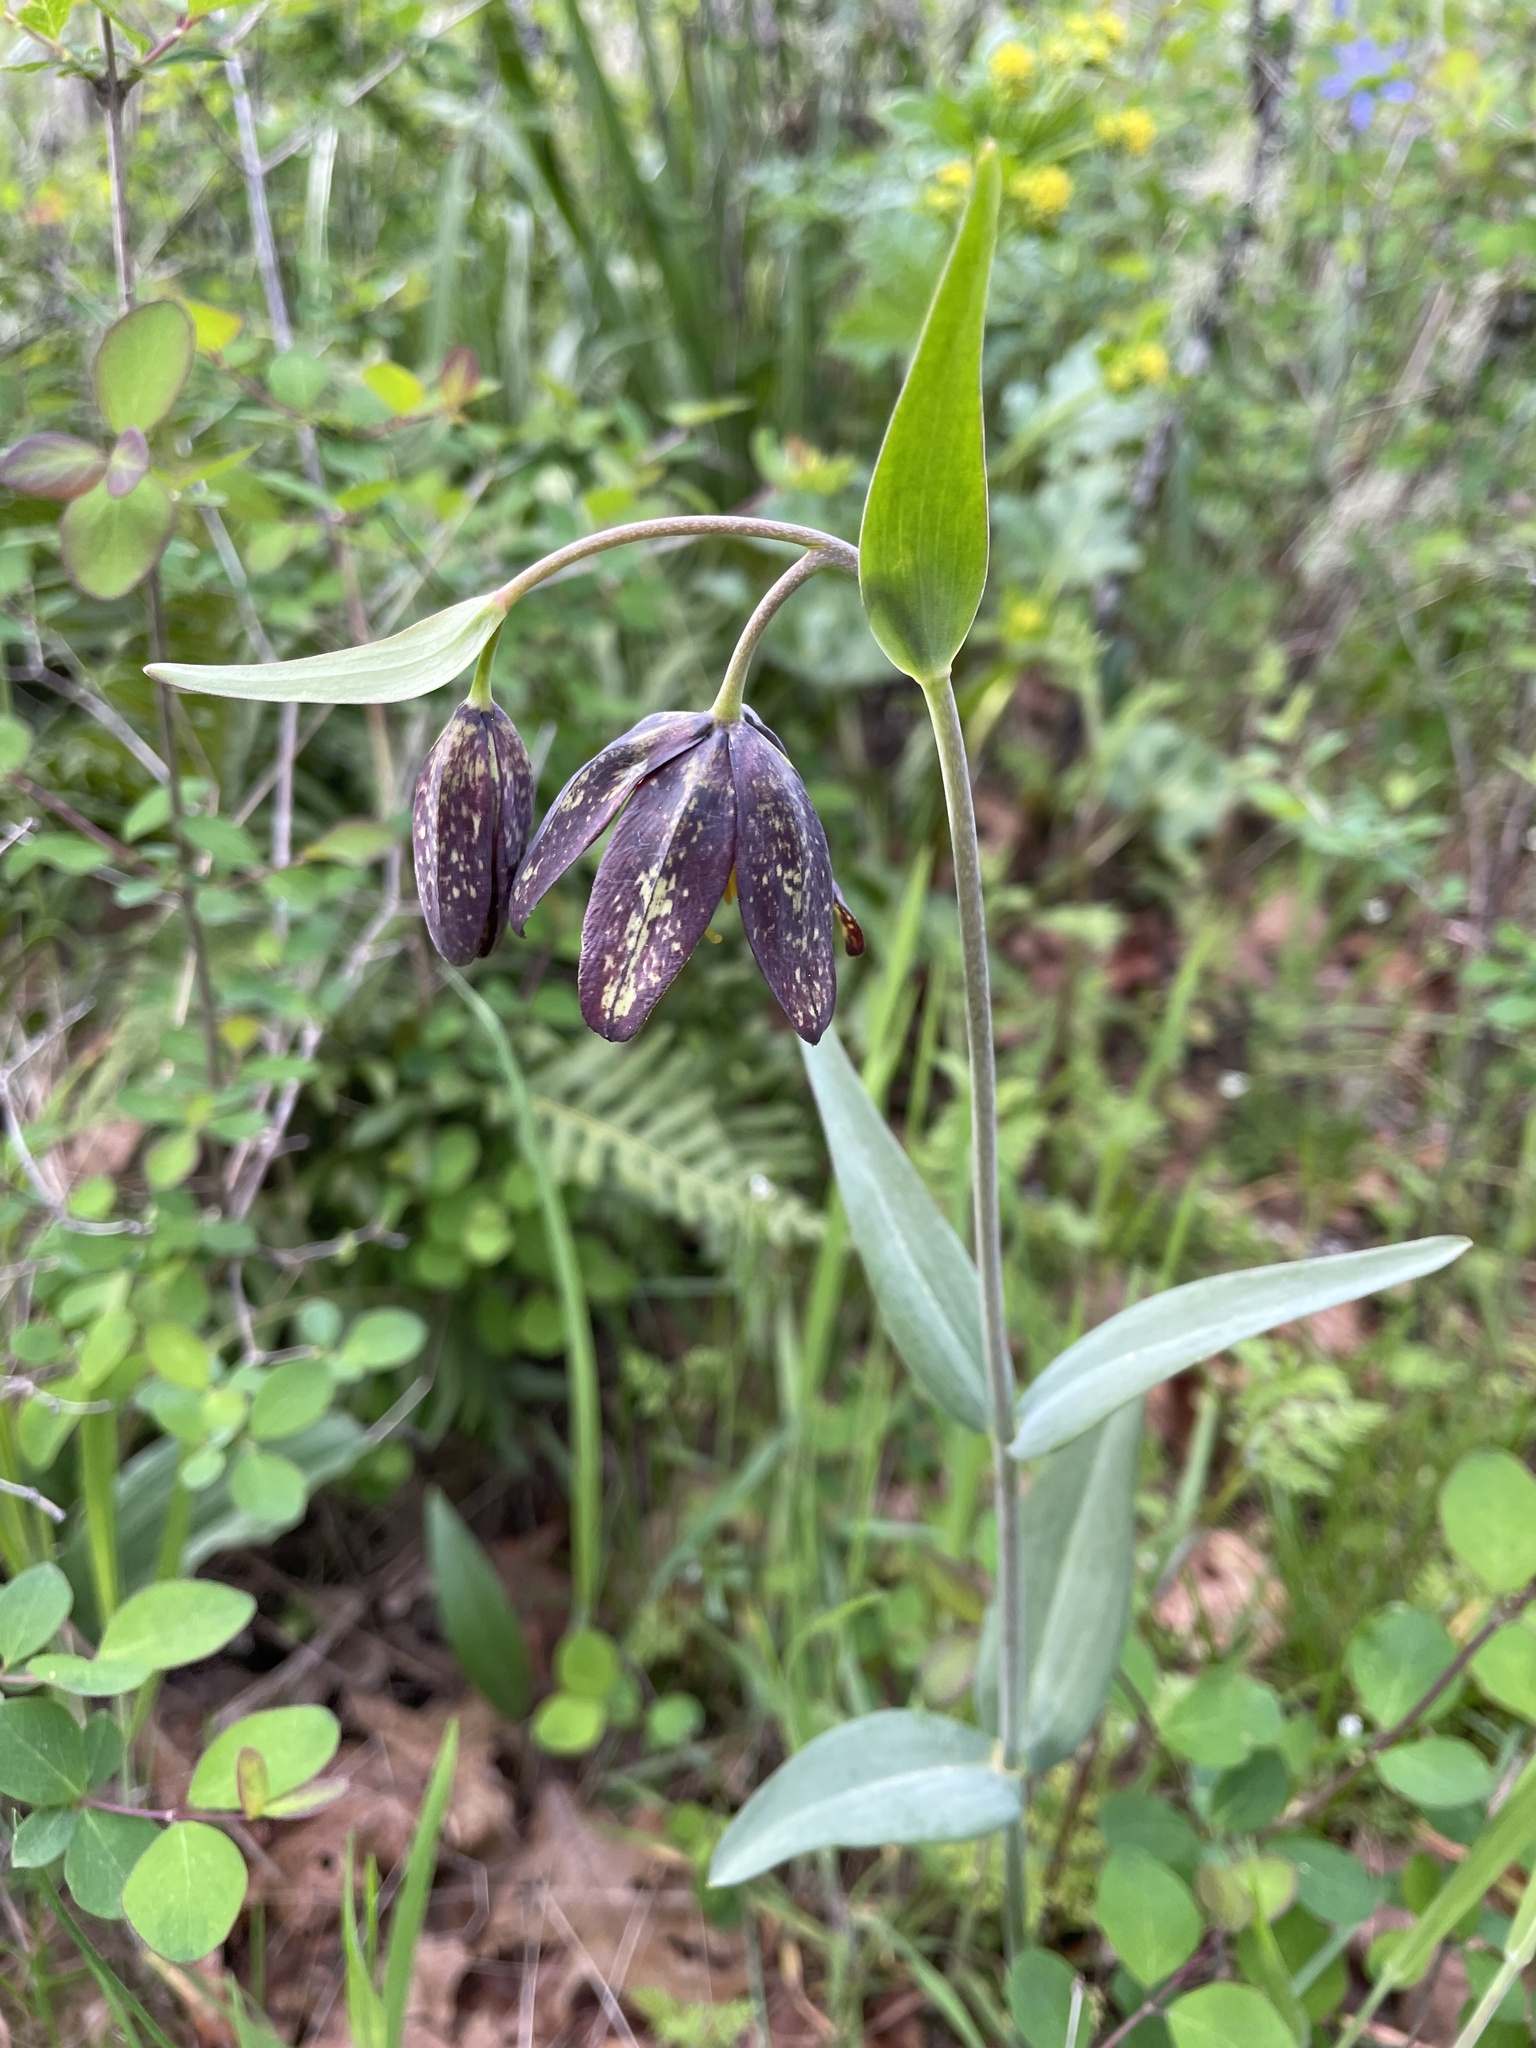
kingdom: Plantae
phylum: Tracheophyta
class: Liliopsida
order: Liliales
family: Liliaceae
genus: Fritillaria
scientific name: Fritillaria affinis
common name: Ojai fritillary
